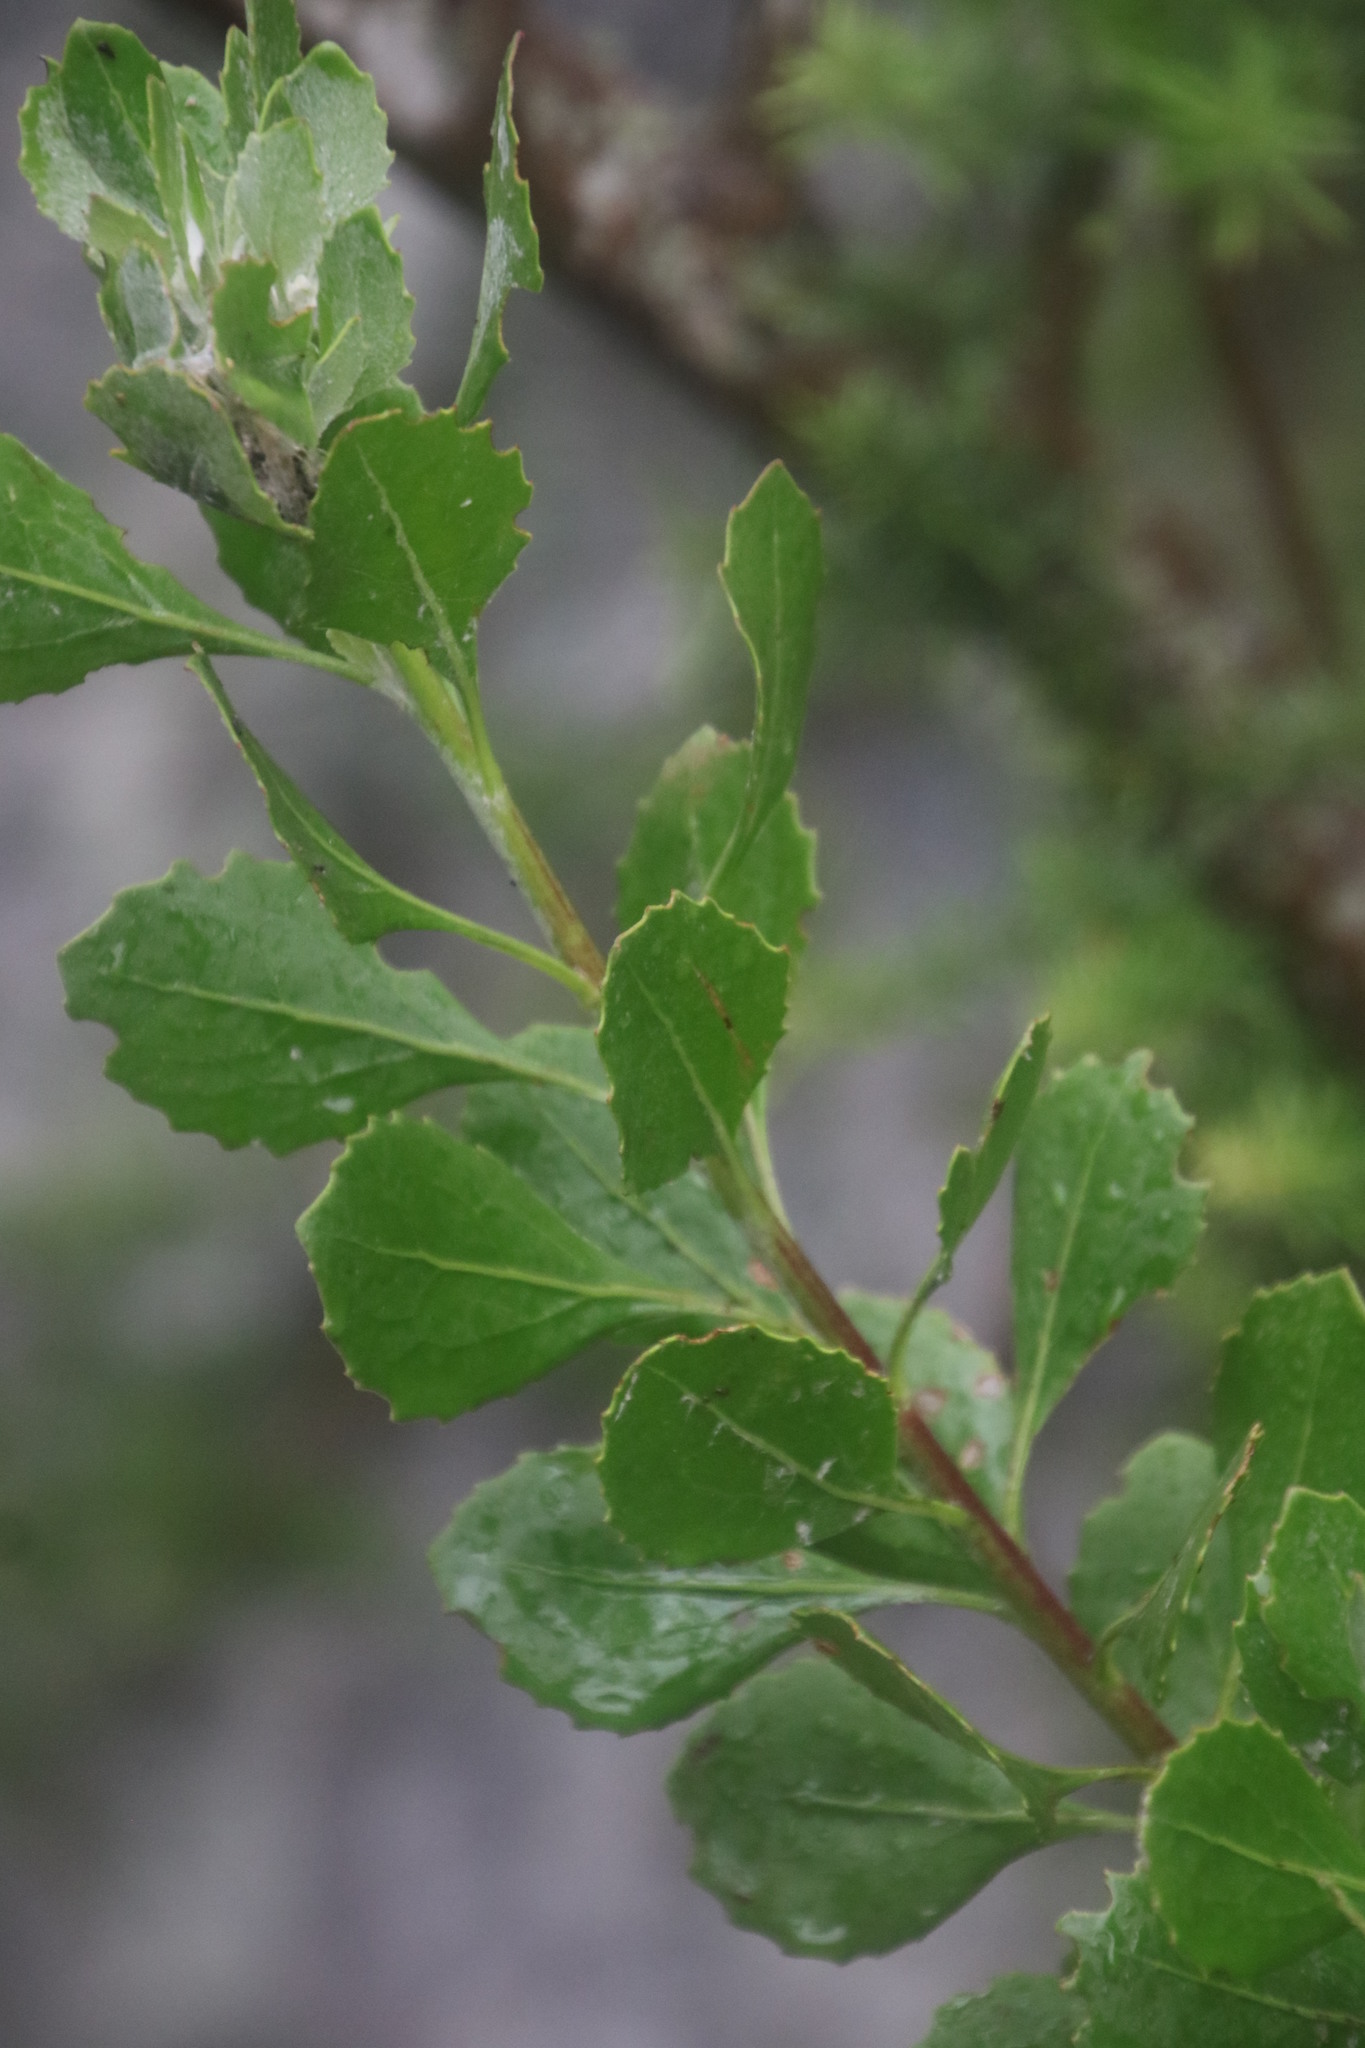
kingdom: Plantae
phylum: Tracheophyta
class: Magnoliopsida
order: Asterales
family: Asteraceae
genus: Osteospermum
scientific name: Osteospermum moniliferum
